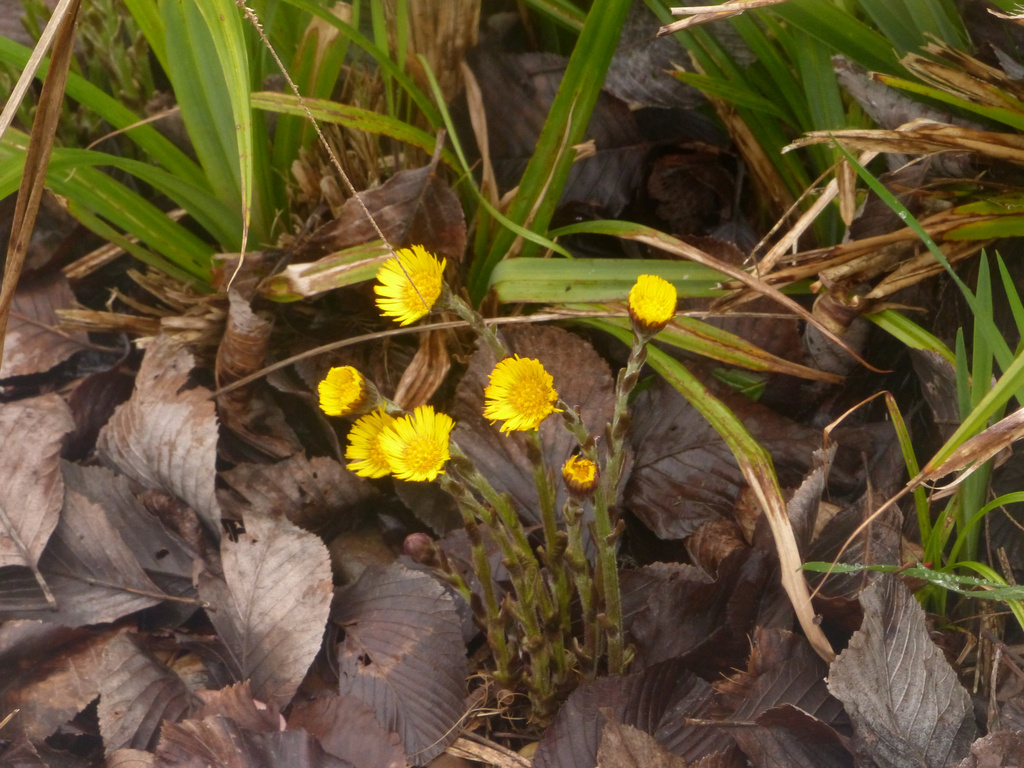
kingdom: Plantae
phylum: Tracheophyta
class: Magnoliopsida
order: Asterales
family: Asteraceae
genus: Tussilago
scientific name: Tussilago farfara
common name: Coltsfoot
